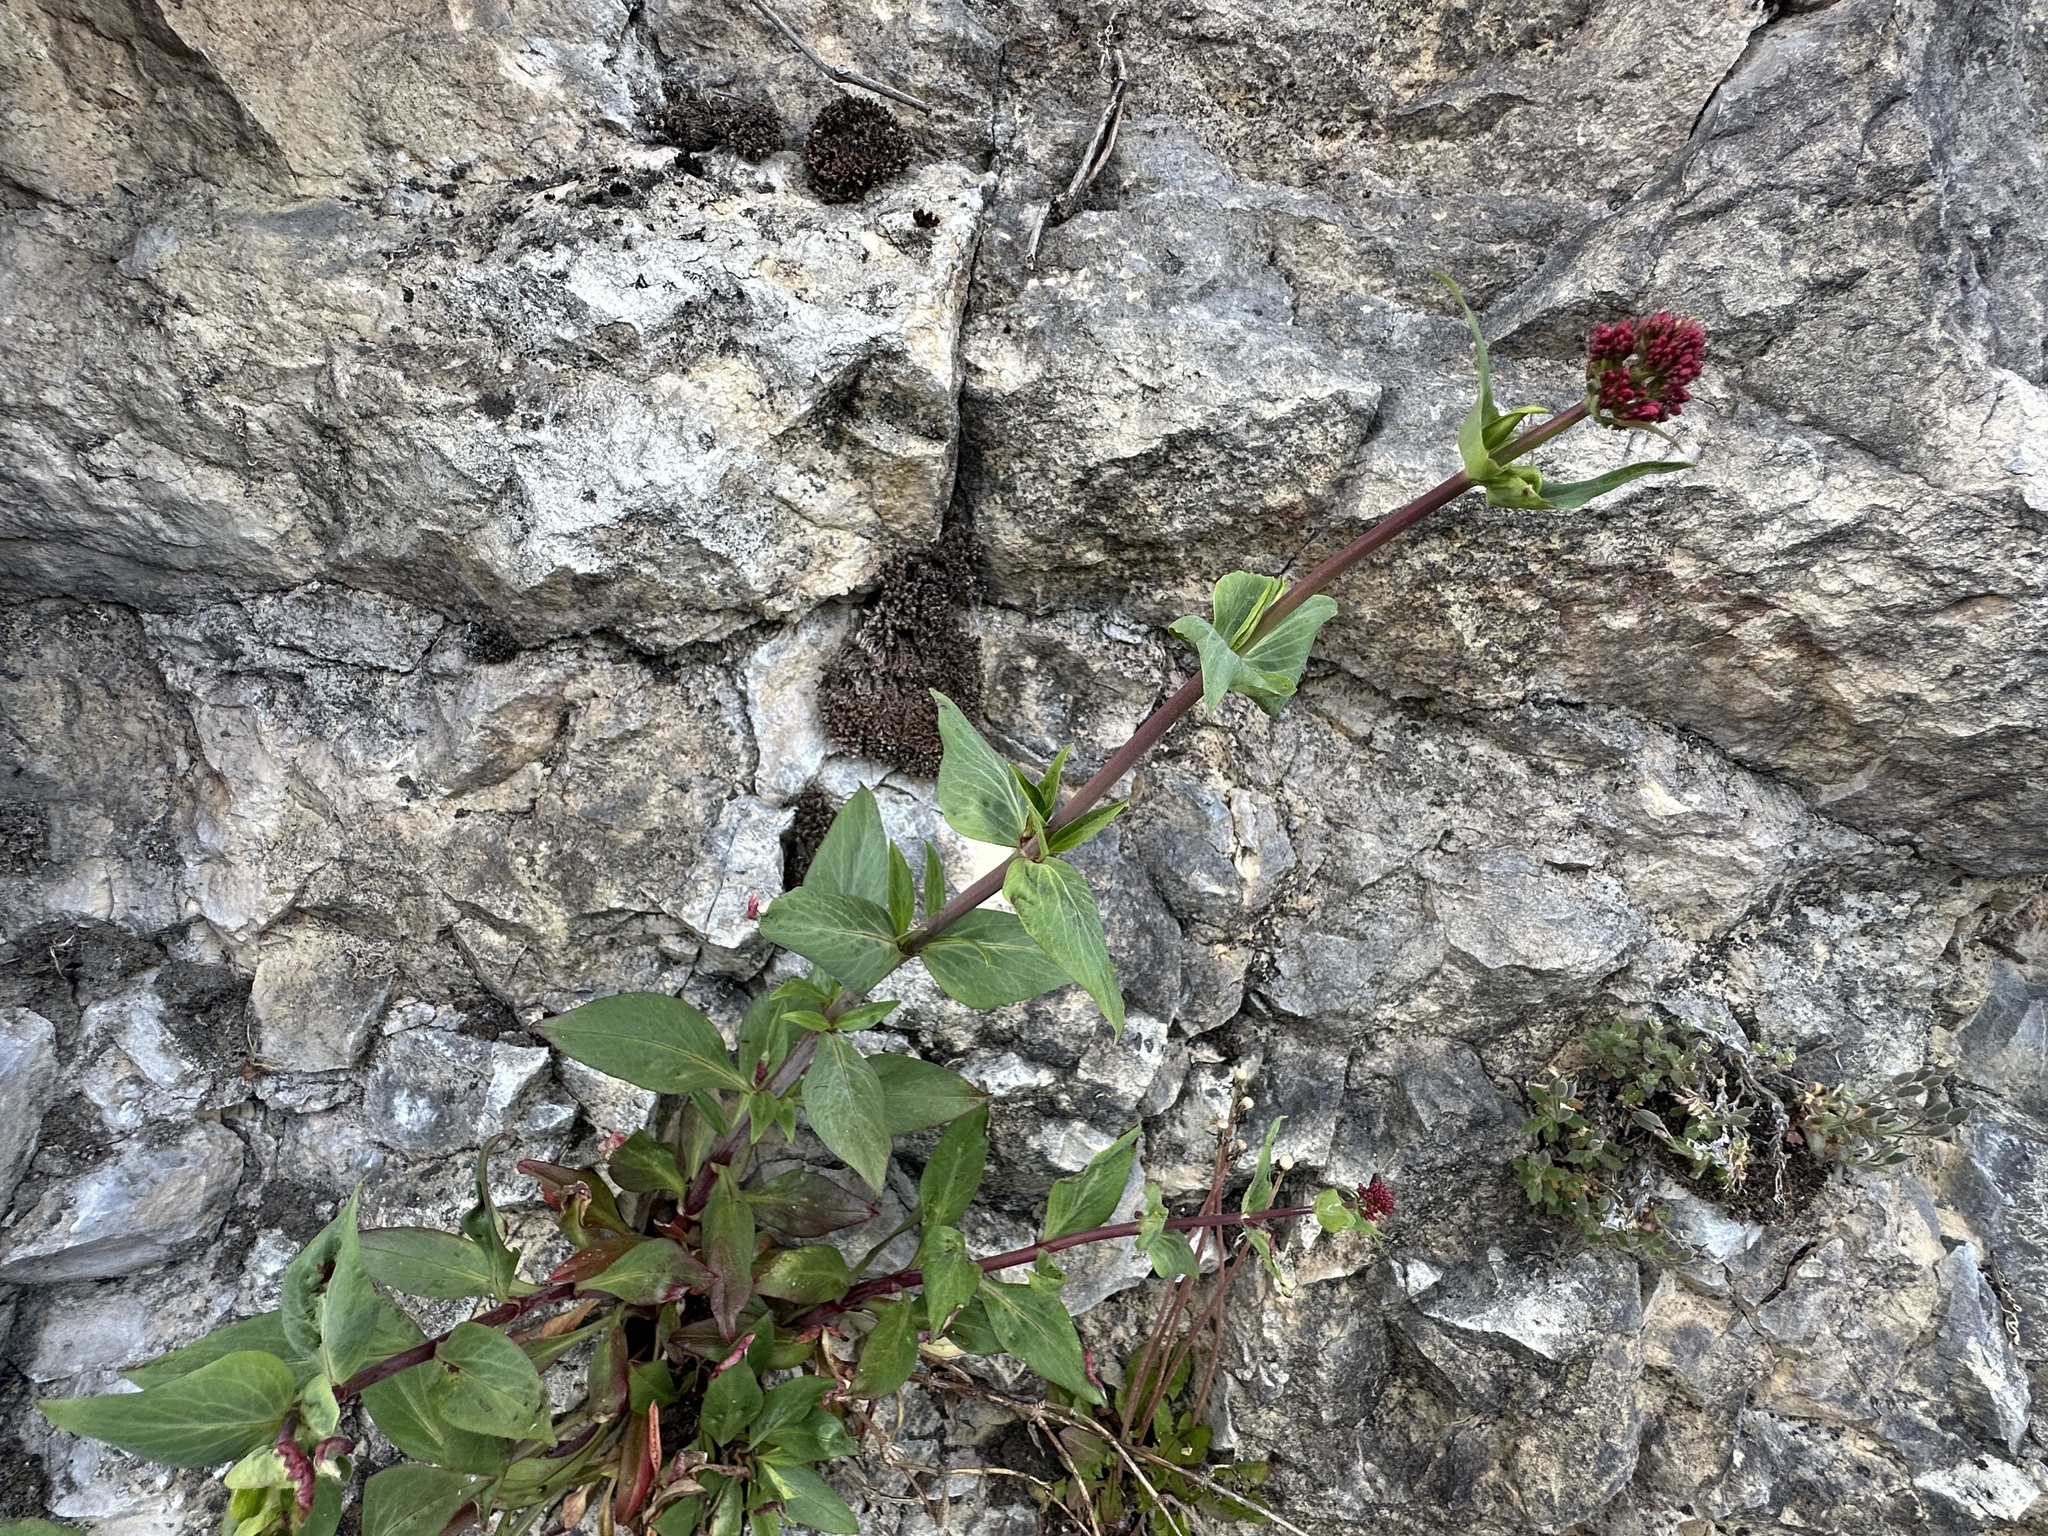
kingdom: Plantae
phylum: Tracheophyta
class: Magnoliopsida
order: Dipsacales
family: Caprifoliaceae
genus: Centranthus
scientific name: Centranthus ruber
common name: Red valerian
